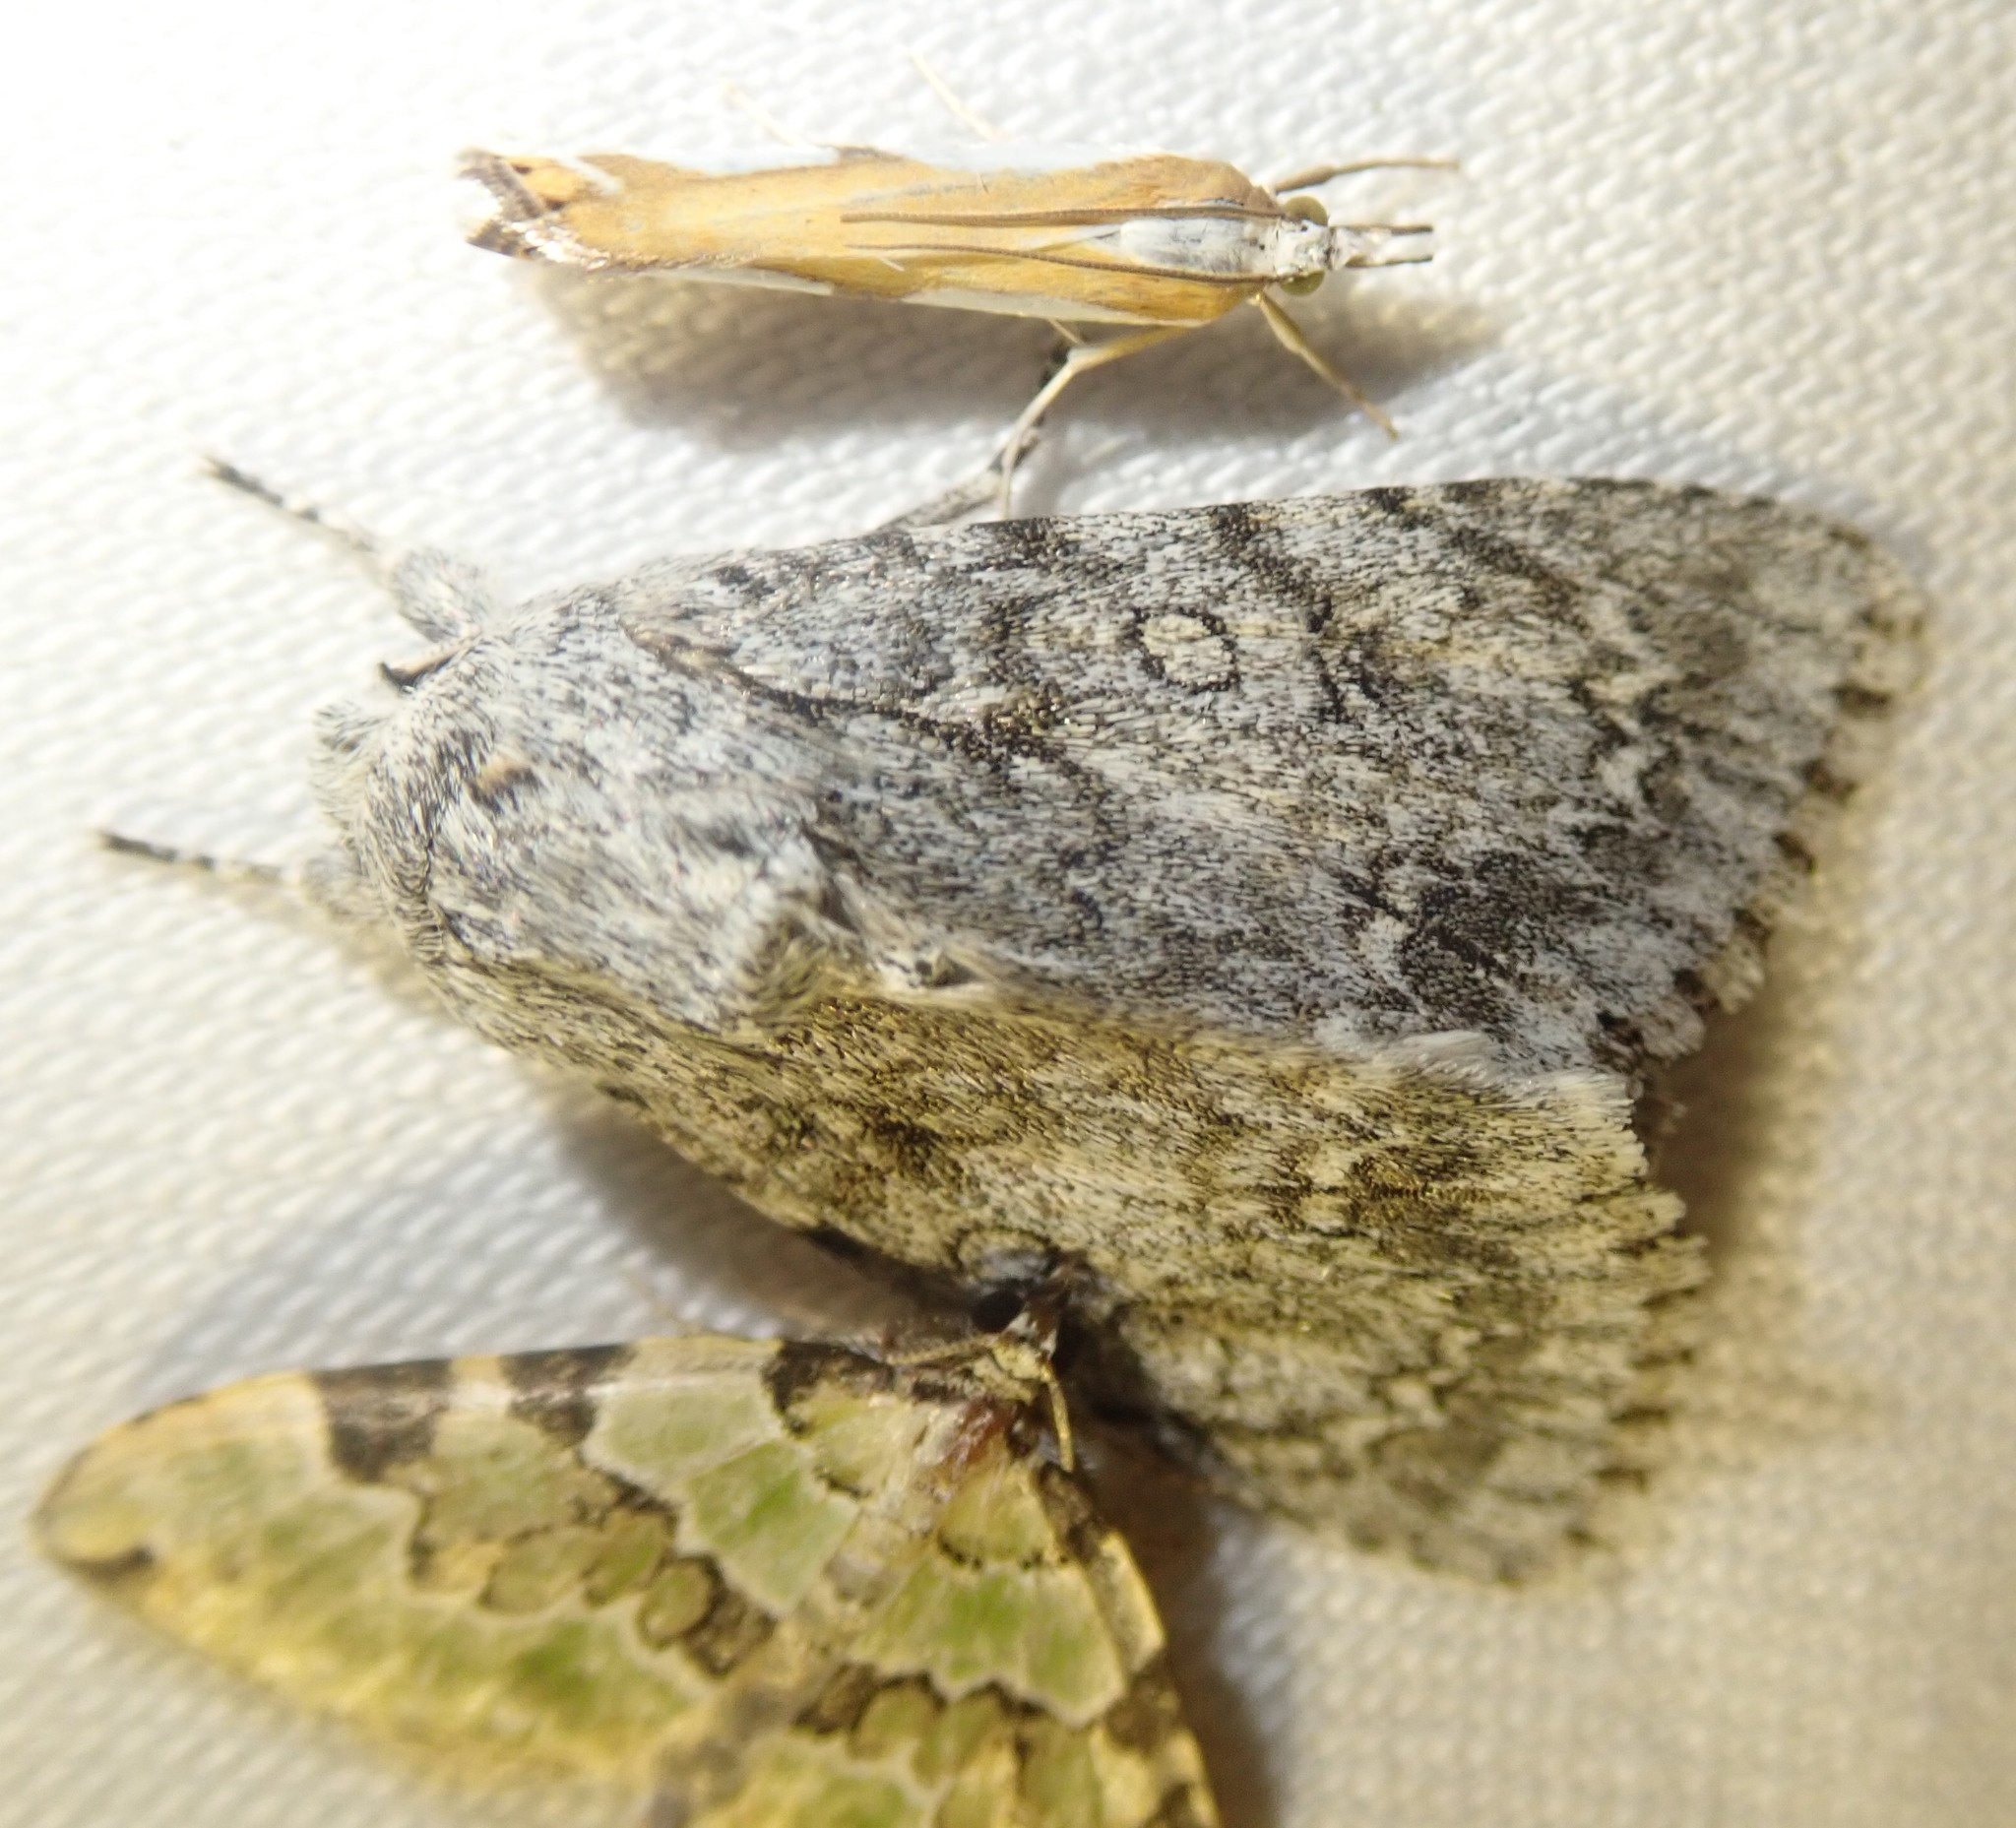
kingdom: Animalia
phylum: Arthropoda
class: Insecta
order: Lepidoptera
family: Noctuidae
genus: Acronicta
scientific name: Acronicta aceris
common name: Sycamore
